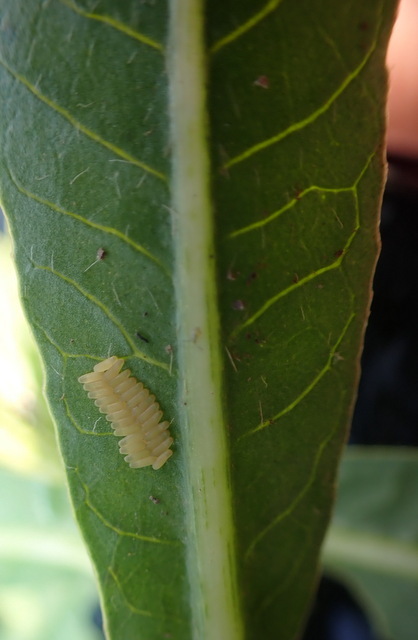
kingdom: Animalia
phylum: Arthropoda
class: Insecta
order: Coleoptera
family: Chrysomelidae
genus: Agasicles
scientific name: Agasicles hygrophila
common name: Alligatorweed flea beetle
